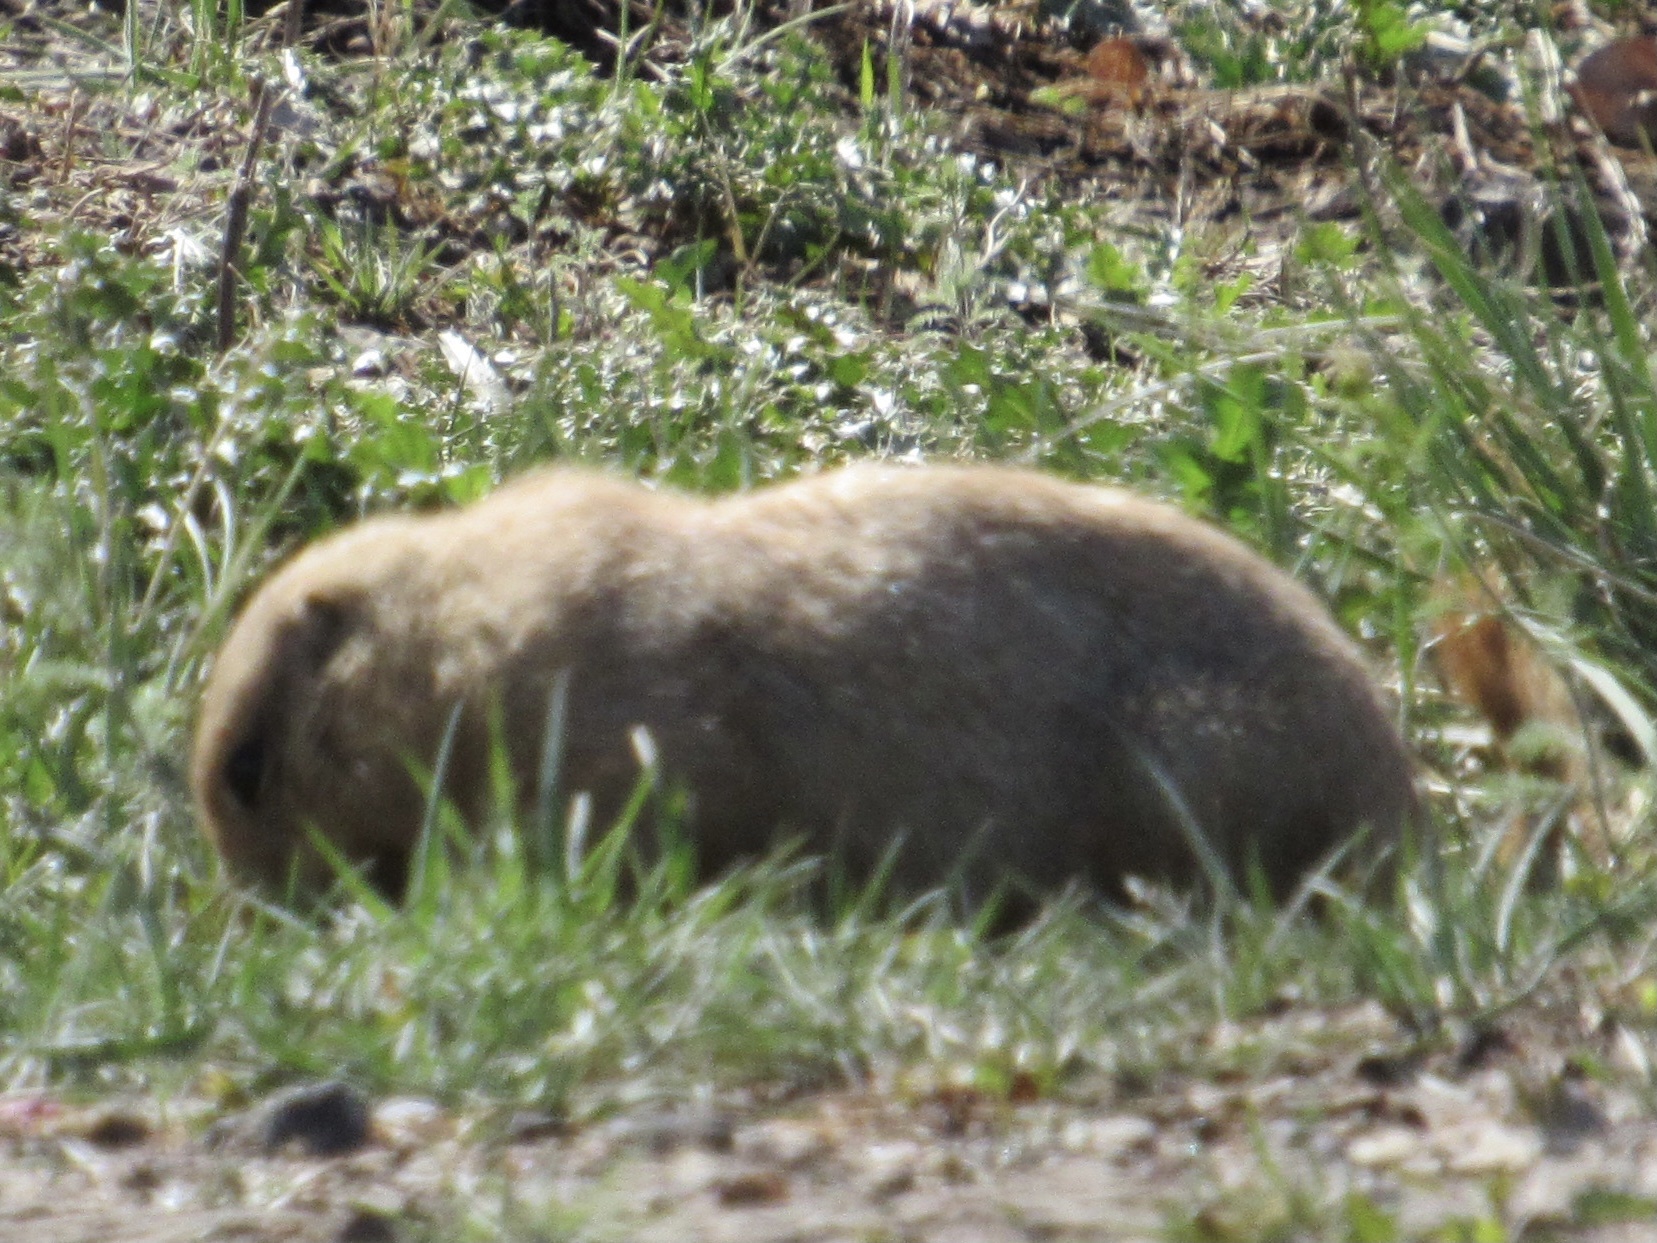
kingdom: Animalia
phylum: Chordata
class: Mammalia
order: Rodentia
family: Sciuridae
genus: Cynomys
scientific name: Cynomys ludovicianus
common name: Black-tailed prairie dog
